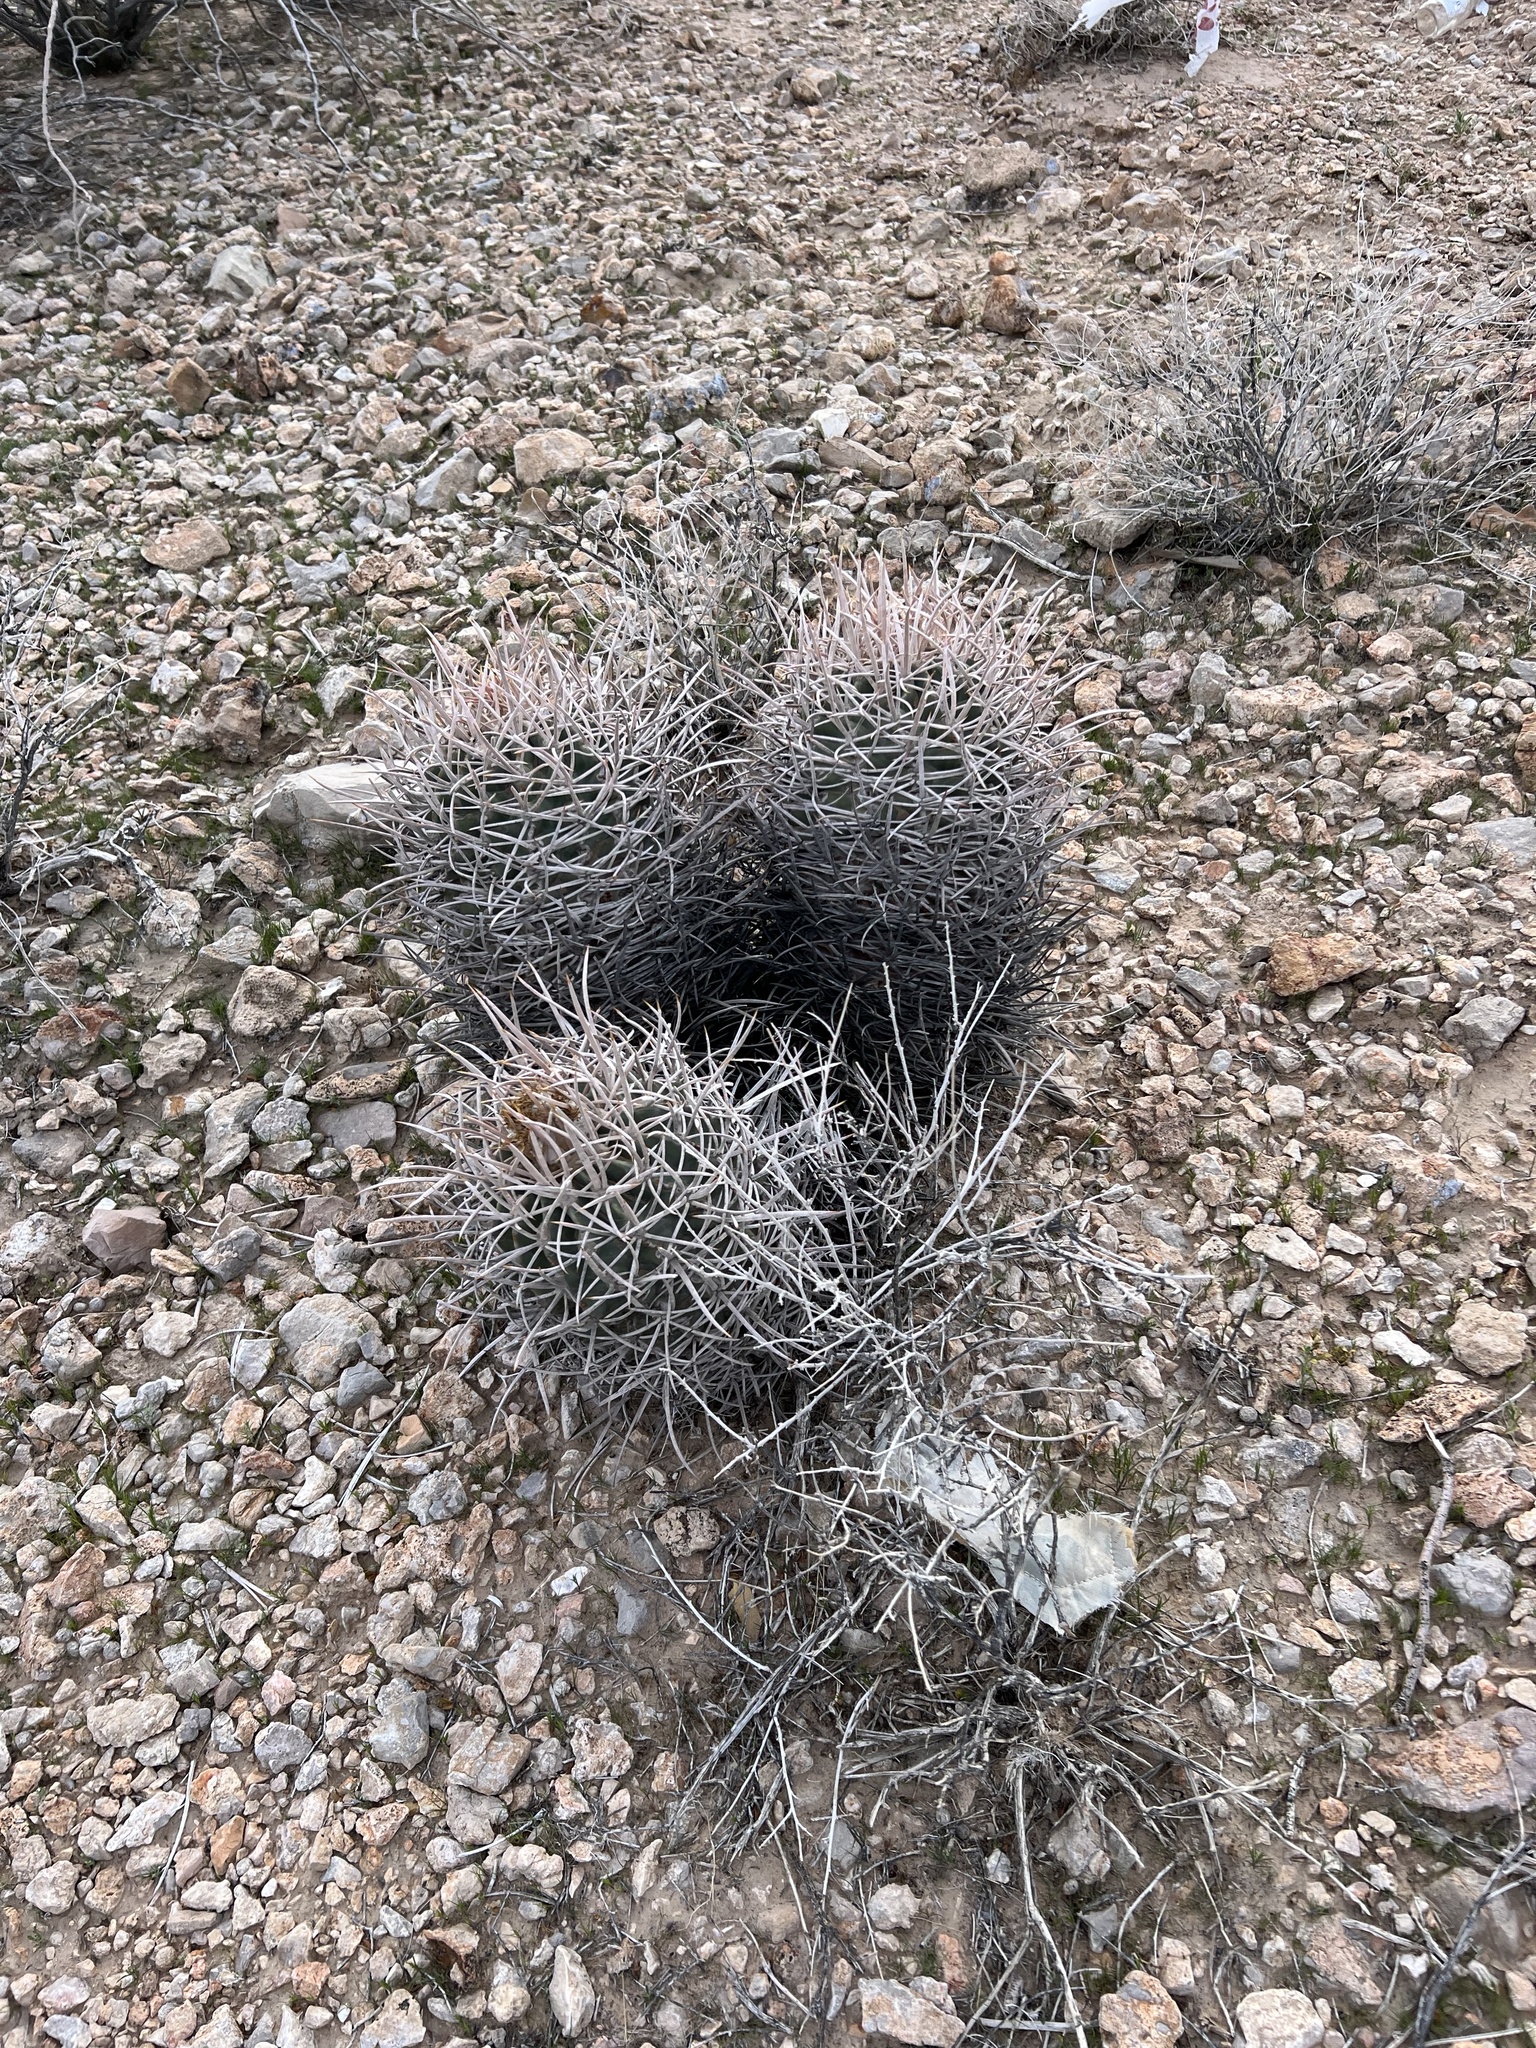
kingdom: Plantae
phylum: Tracheophyta
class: Magnoliopsida
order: Caryophyllales
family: Cactaceae
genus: Echinocactus
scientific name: Echinocactus polycephalus
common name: Cottontop cactus
